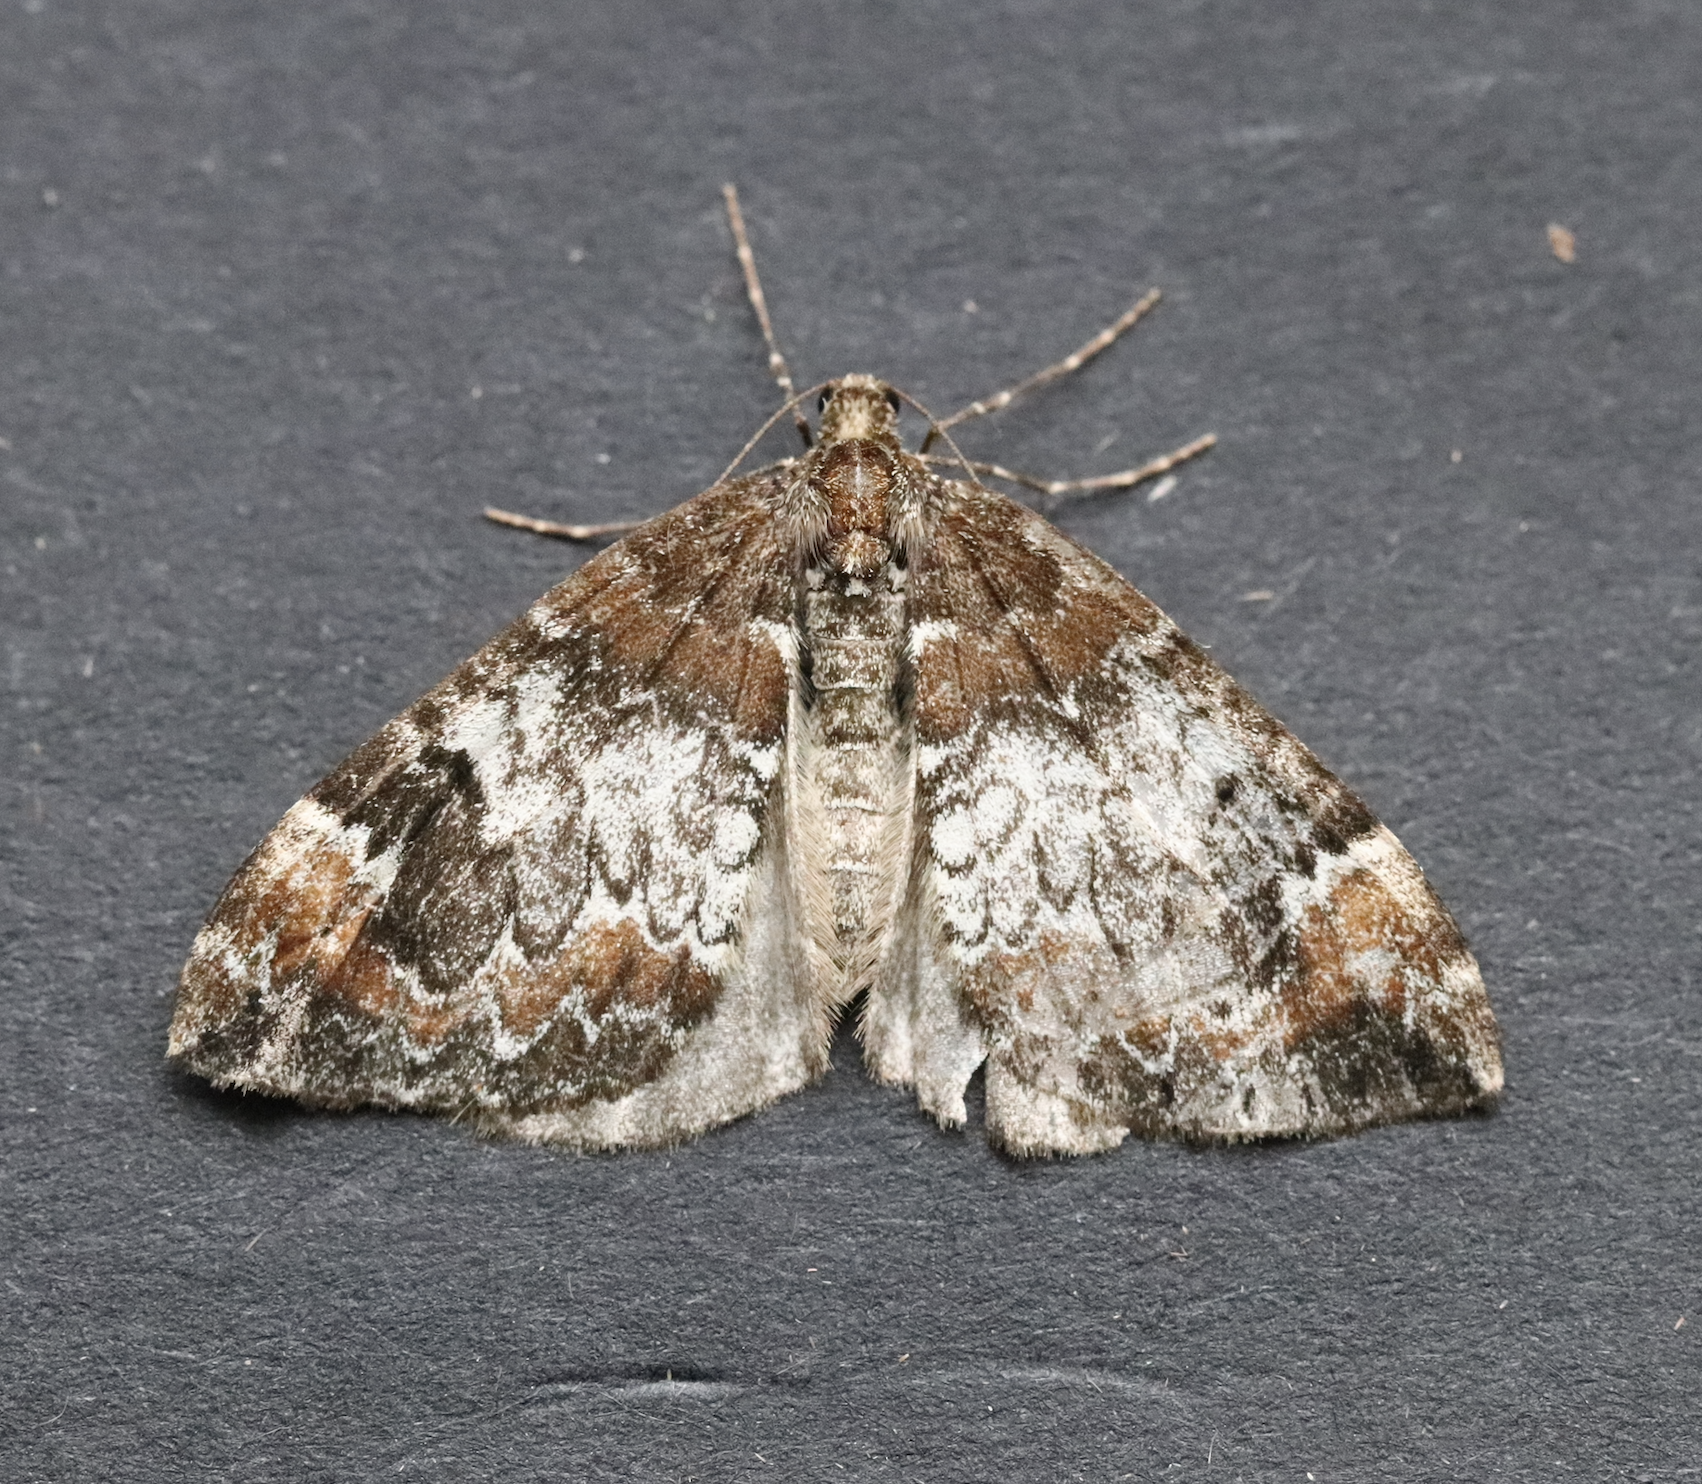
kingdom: Animalia
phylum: Arthropoda
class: Insecta
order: Lepidoptera
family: Geometridae
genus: Dysstroma
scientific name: Dysstroma truncata
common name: Common marbled carpet
